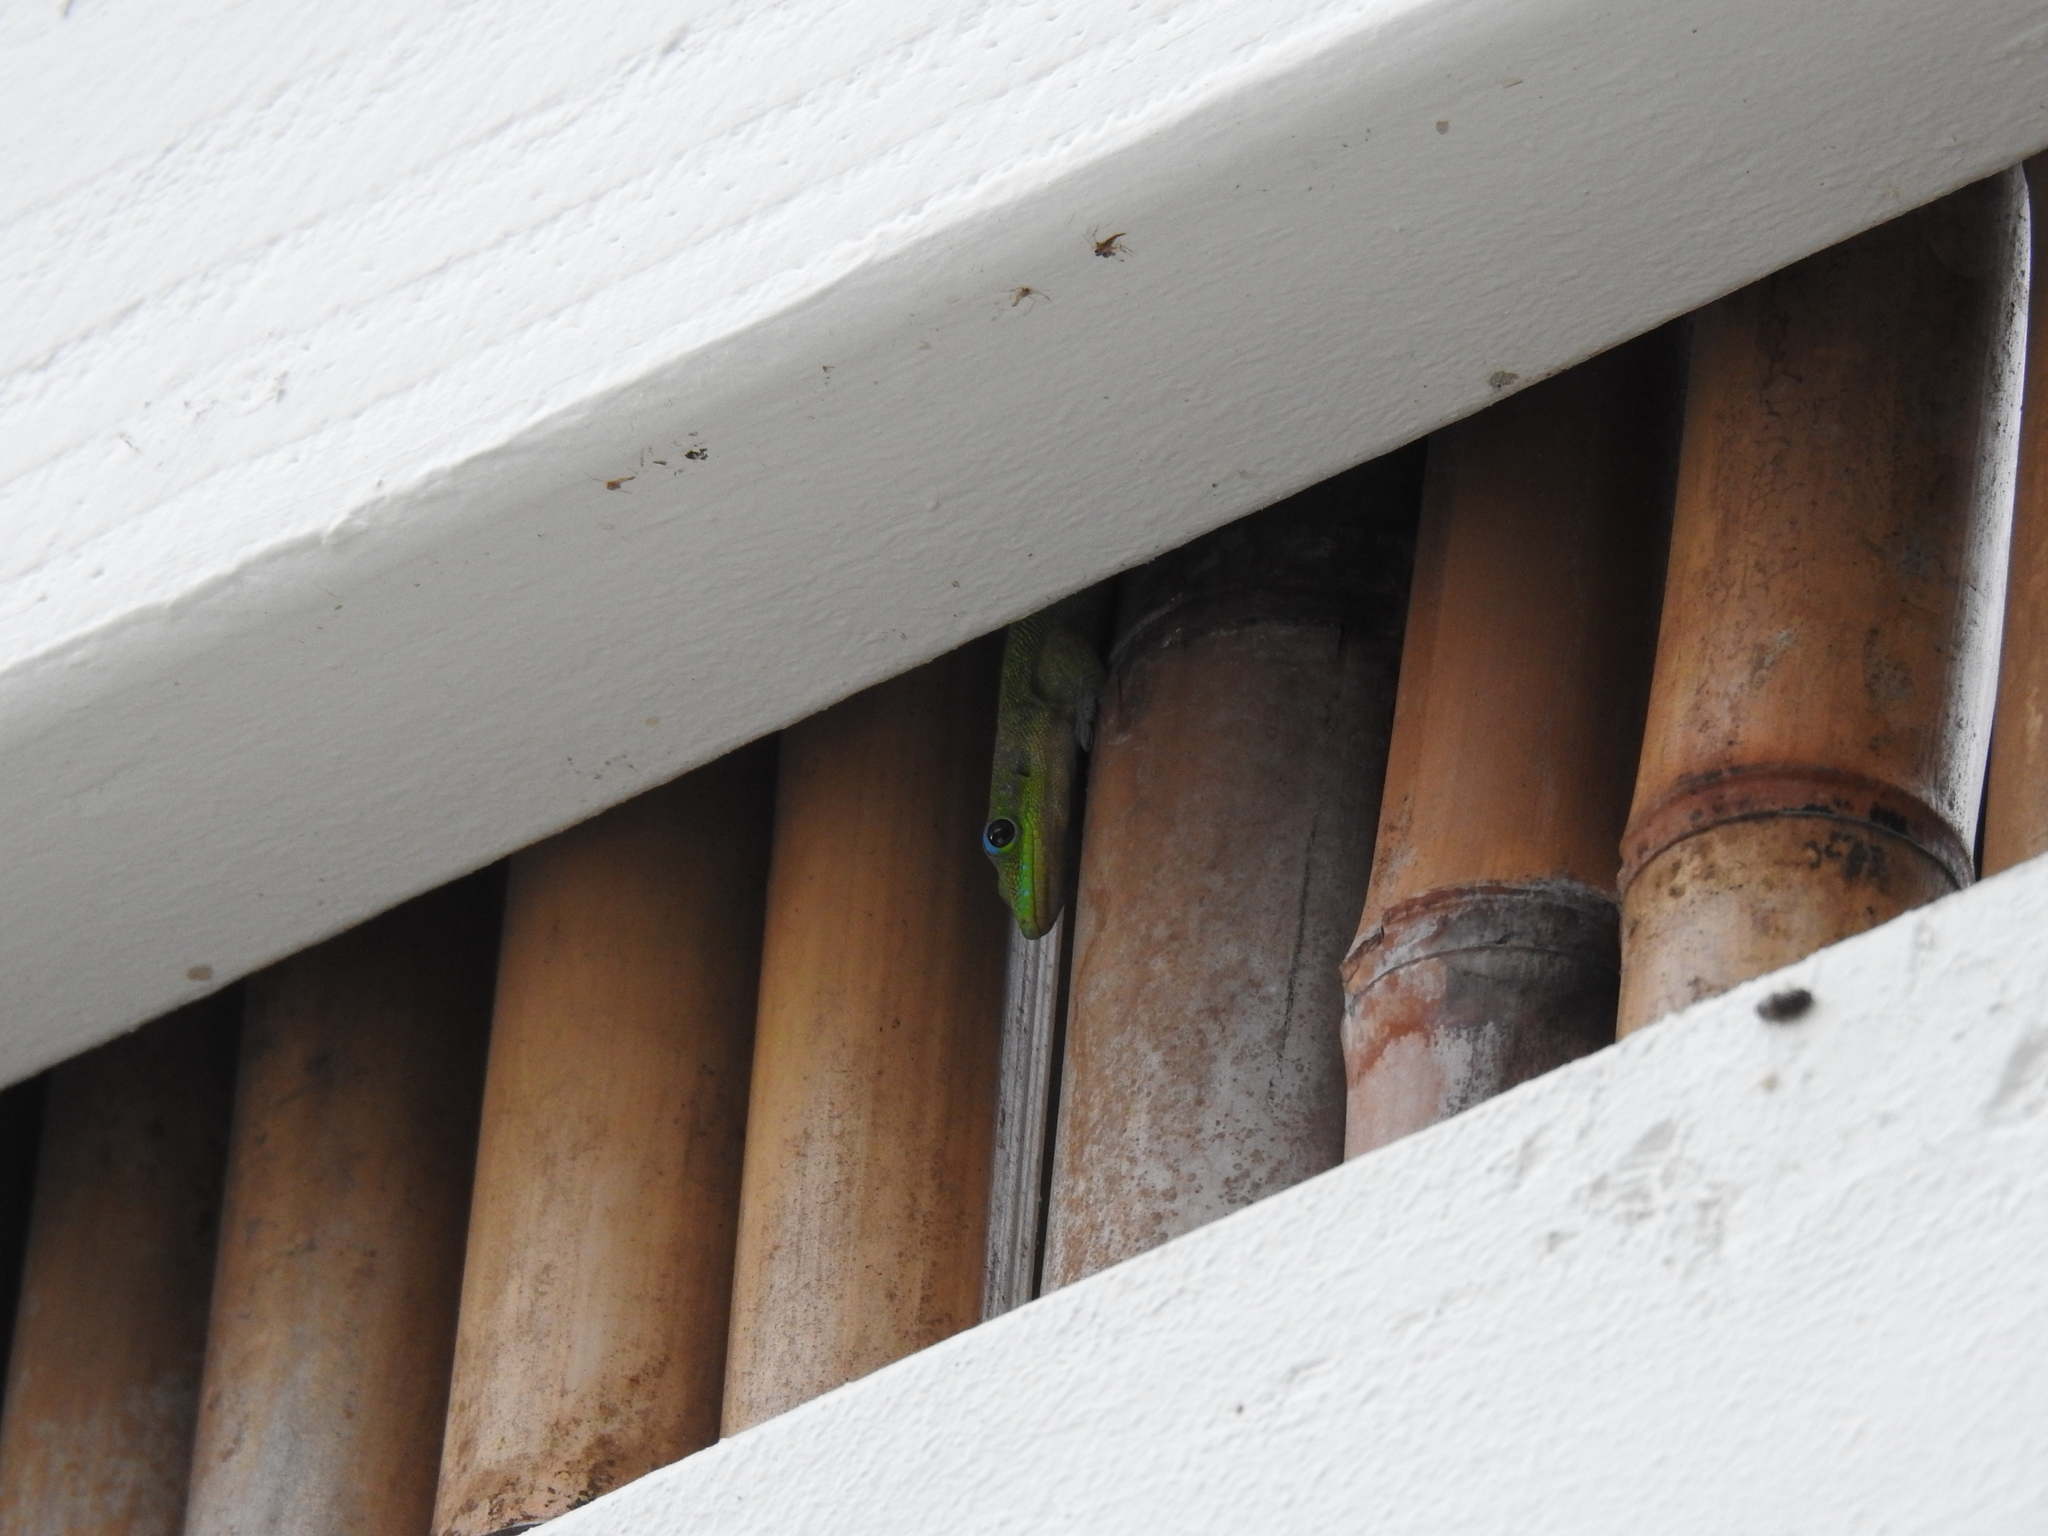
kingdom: Animalia
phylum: Chordata
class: Squamata
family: Gekkonidae
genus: Phelsuma
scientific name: Phelsuma laticauda
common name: Gold dust day gecko
